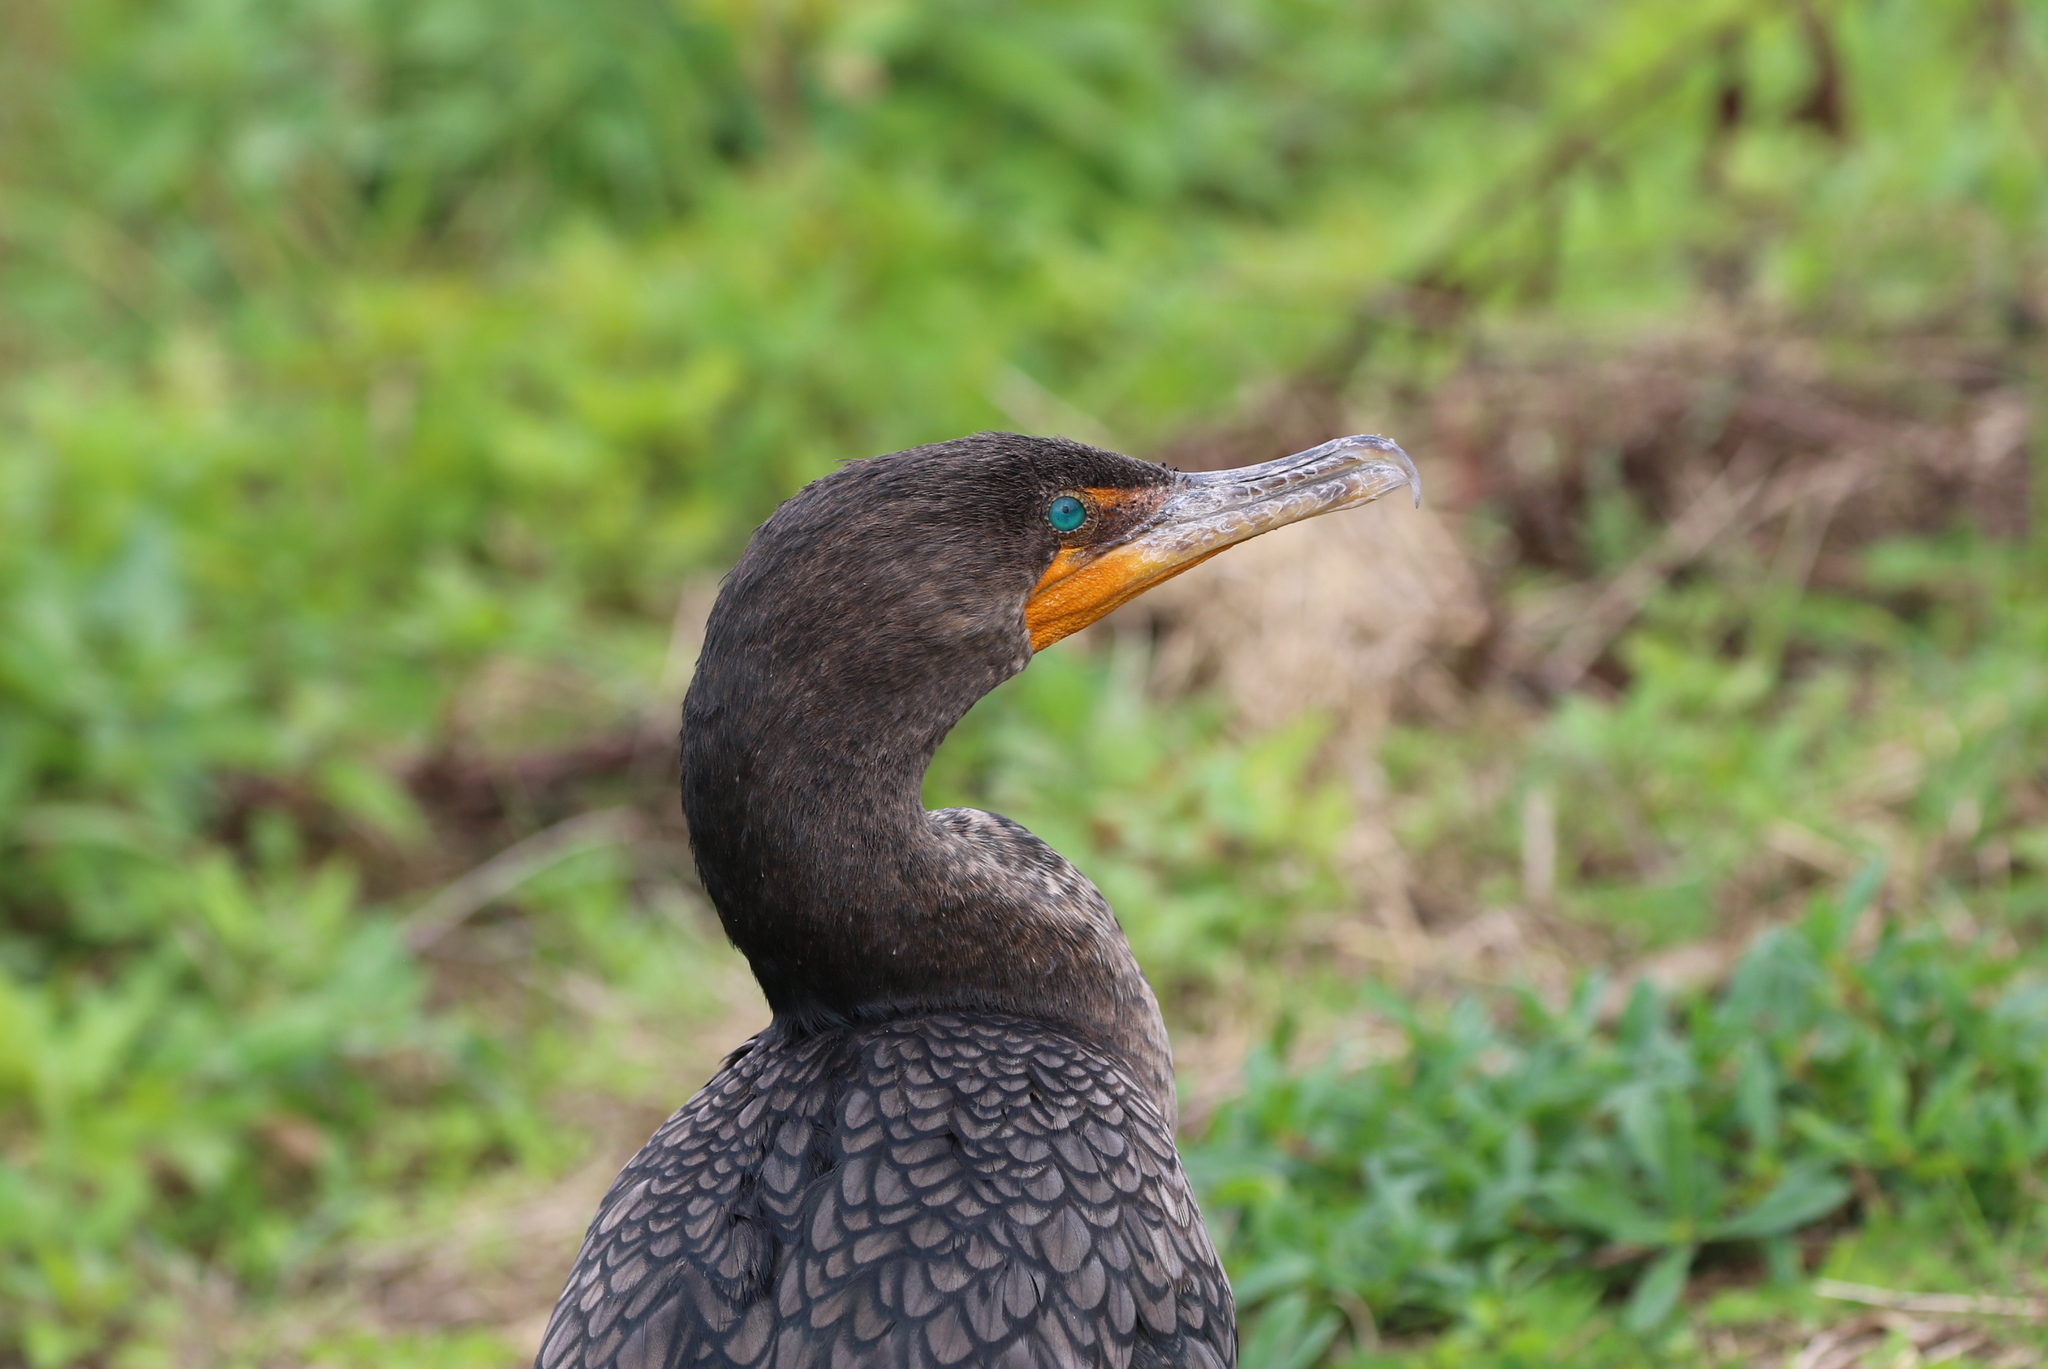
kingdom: Animalia
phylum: Chordata
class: Aves
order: Suliformes
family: Phalacrocoracidae
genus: Phalacrocorax
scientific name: Phalacrocorax auritus
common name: Double-crested cormorant
